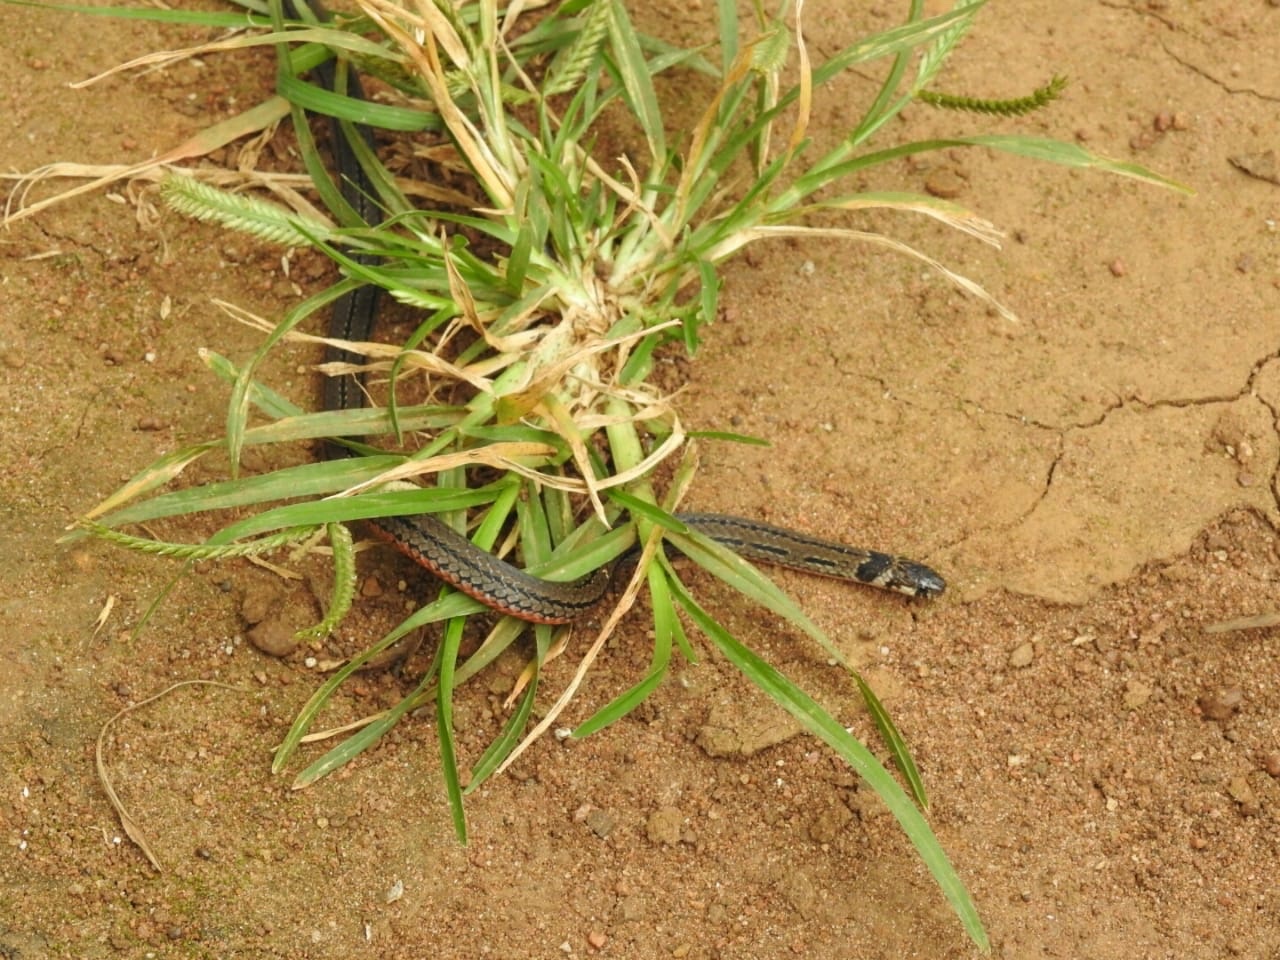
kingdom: Animalia
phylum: Chordata
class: Squamata
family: Elapidae
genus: Calliophis
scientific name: Calliophis nigrescens
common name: Black coral snake
